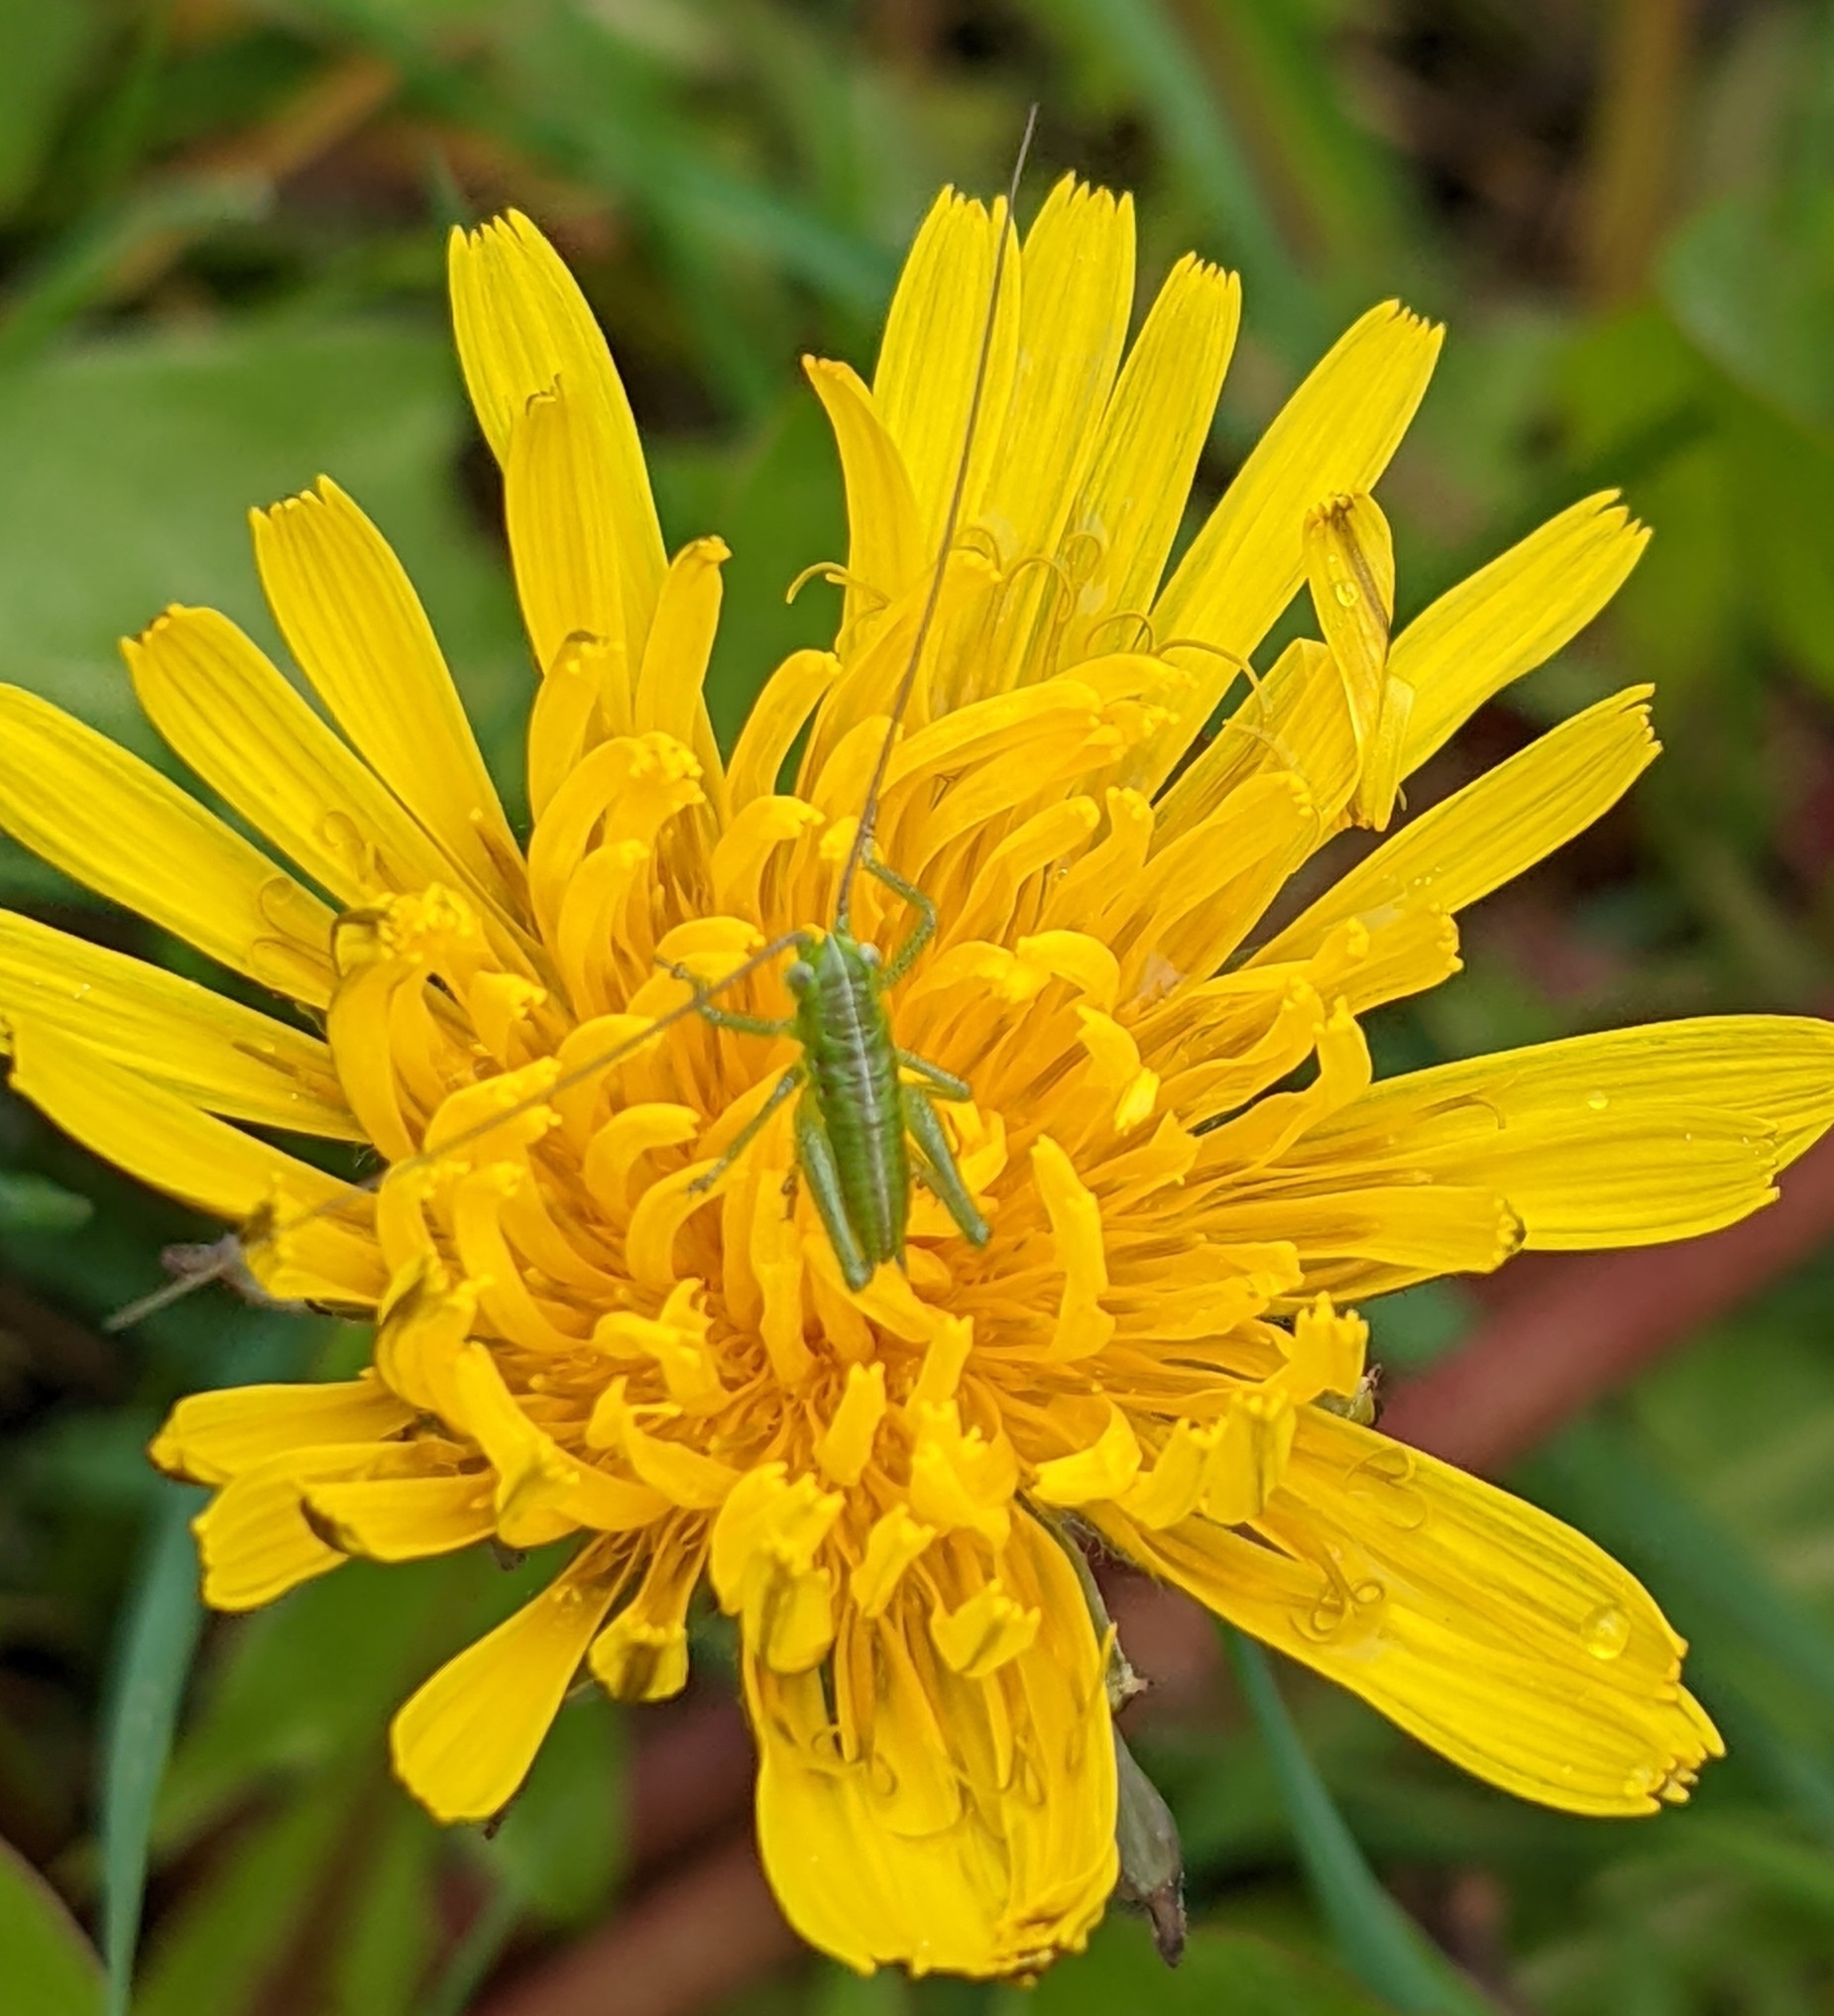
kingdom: Animalia
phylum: Arthropoda
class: Insecta
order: Orthoptera
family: Tettigoniidae
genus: Tettigonia
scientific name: Tettigonia viridissima
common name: Great green bush-cricket
